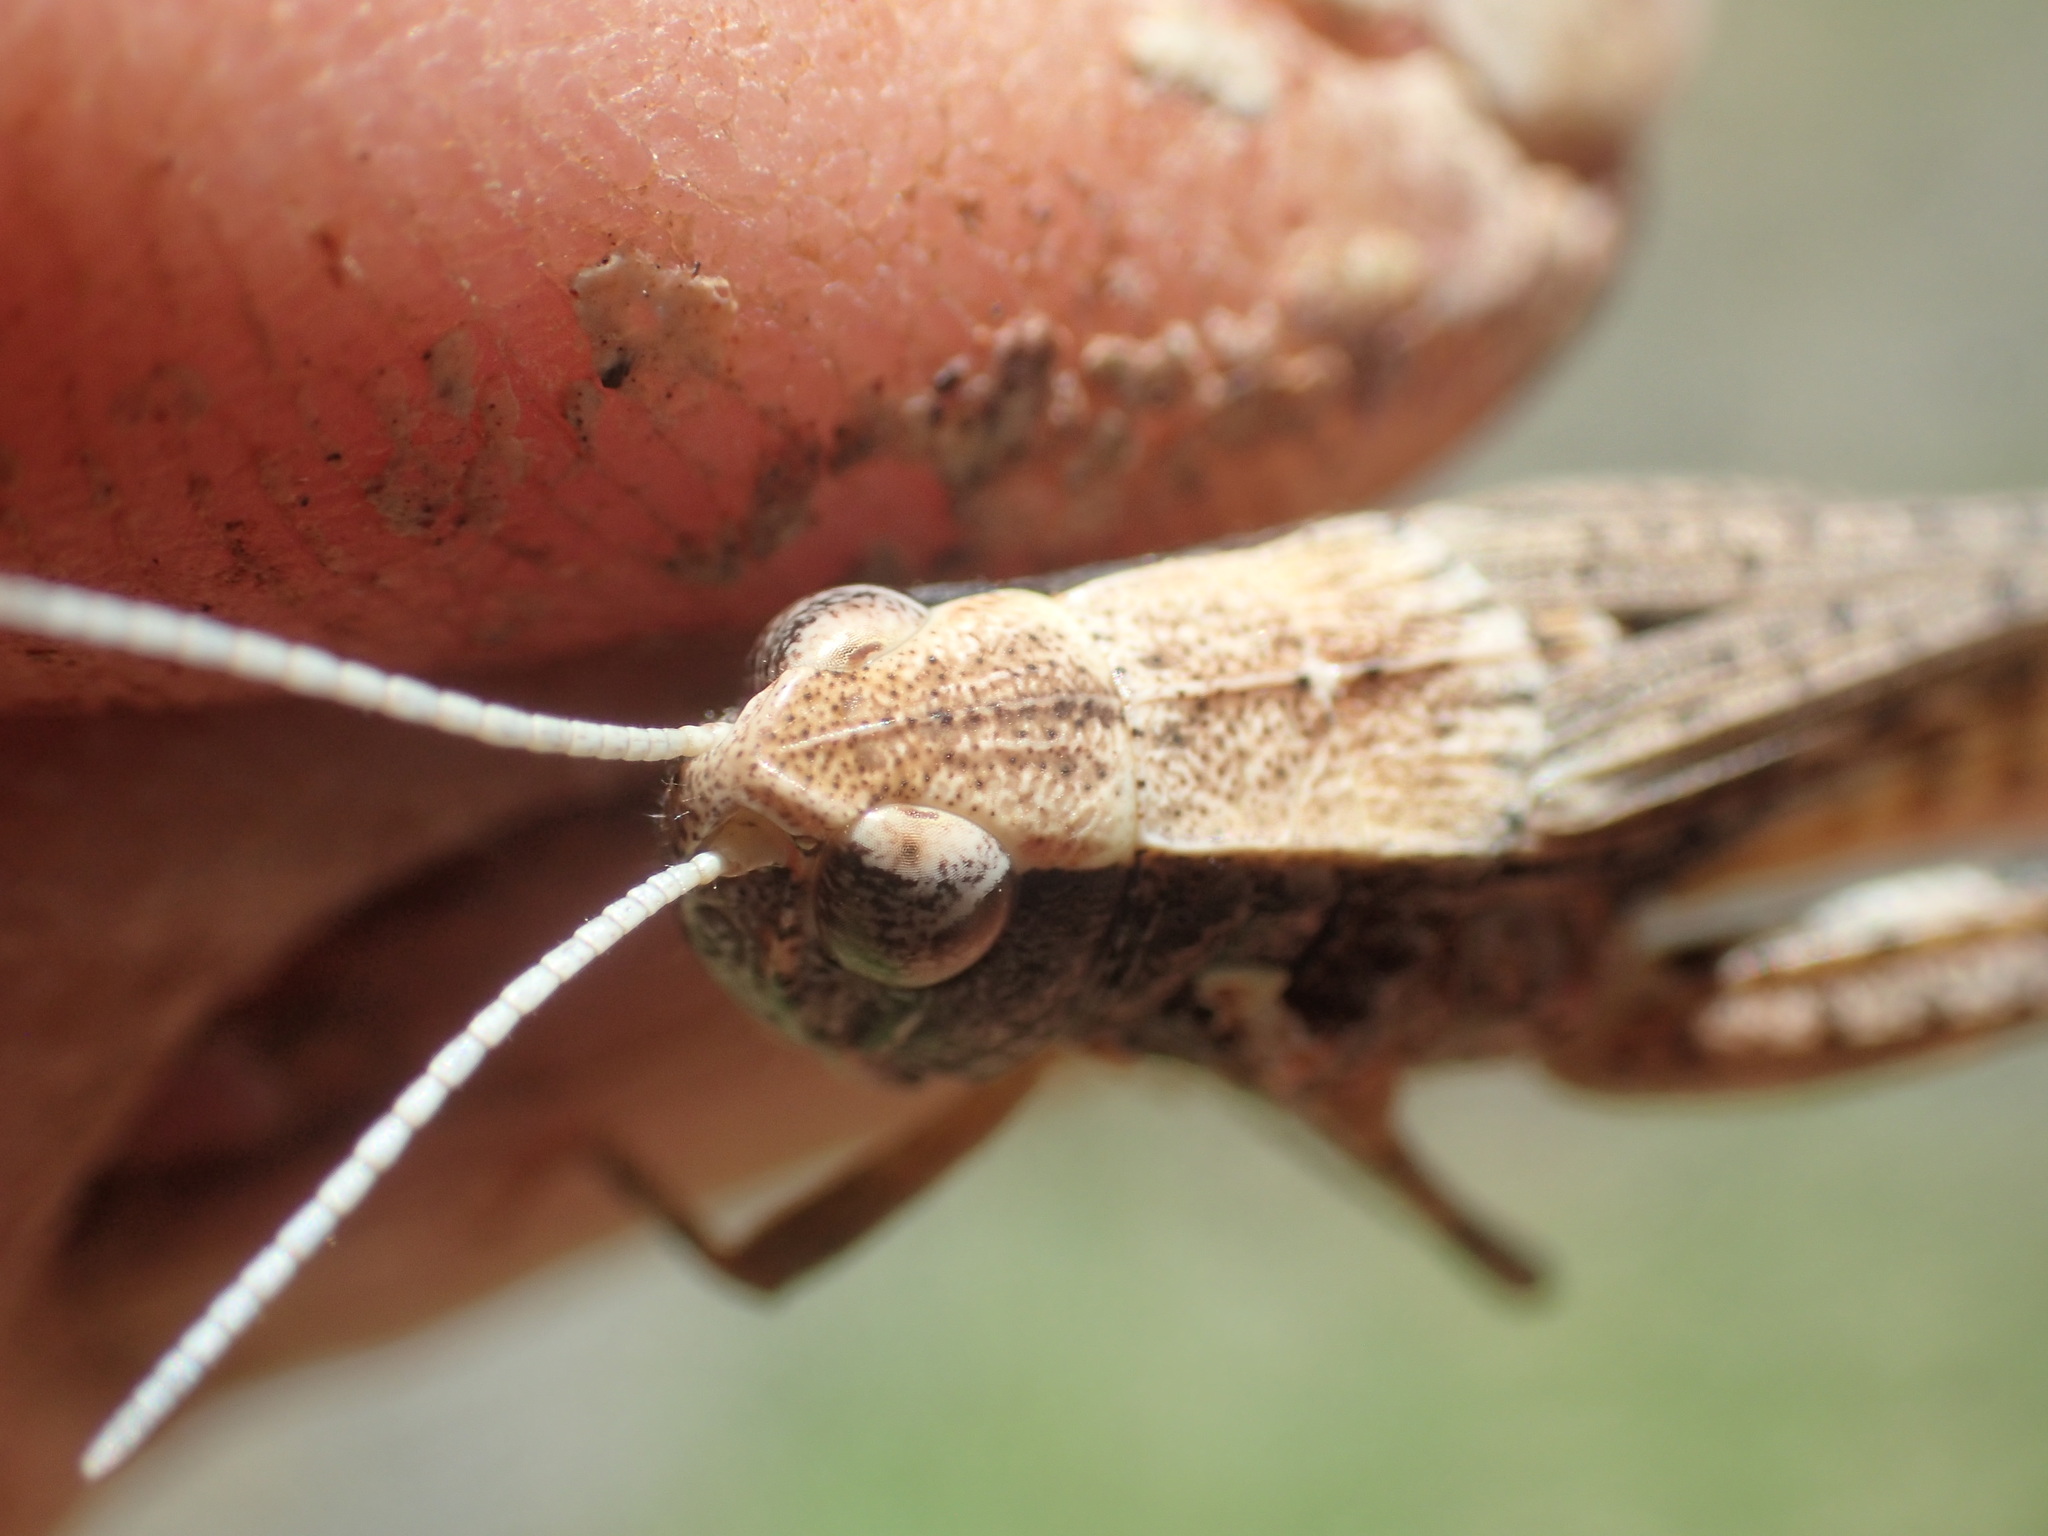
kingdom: Animalia
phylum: Arthropoda
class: Insecta
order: Orthoptera
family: Acrididae
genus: Azelota
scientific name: Azelota
